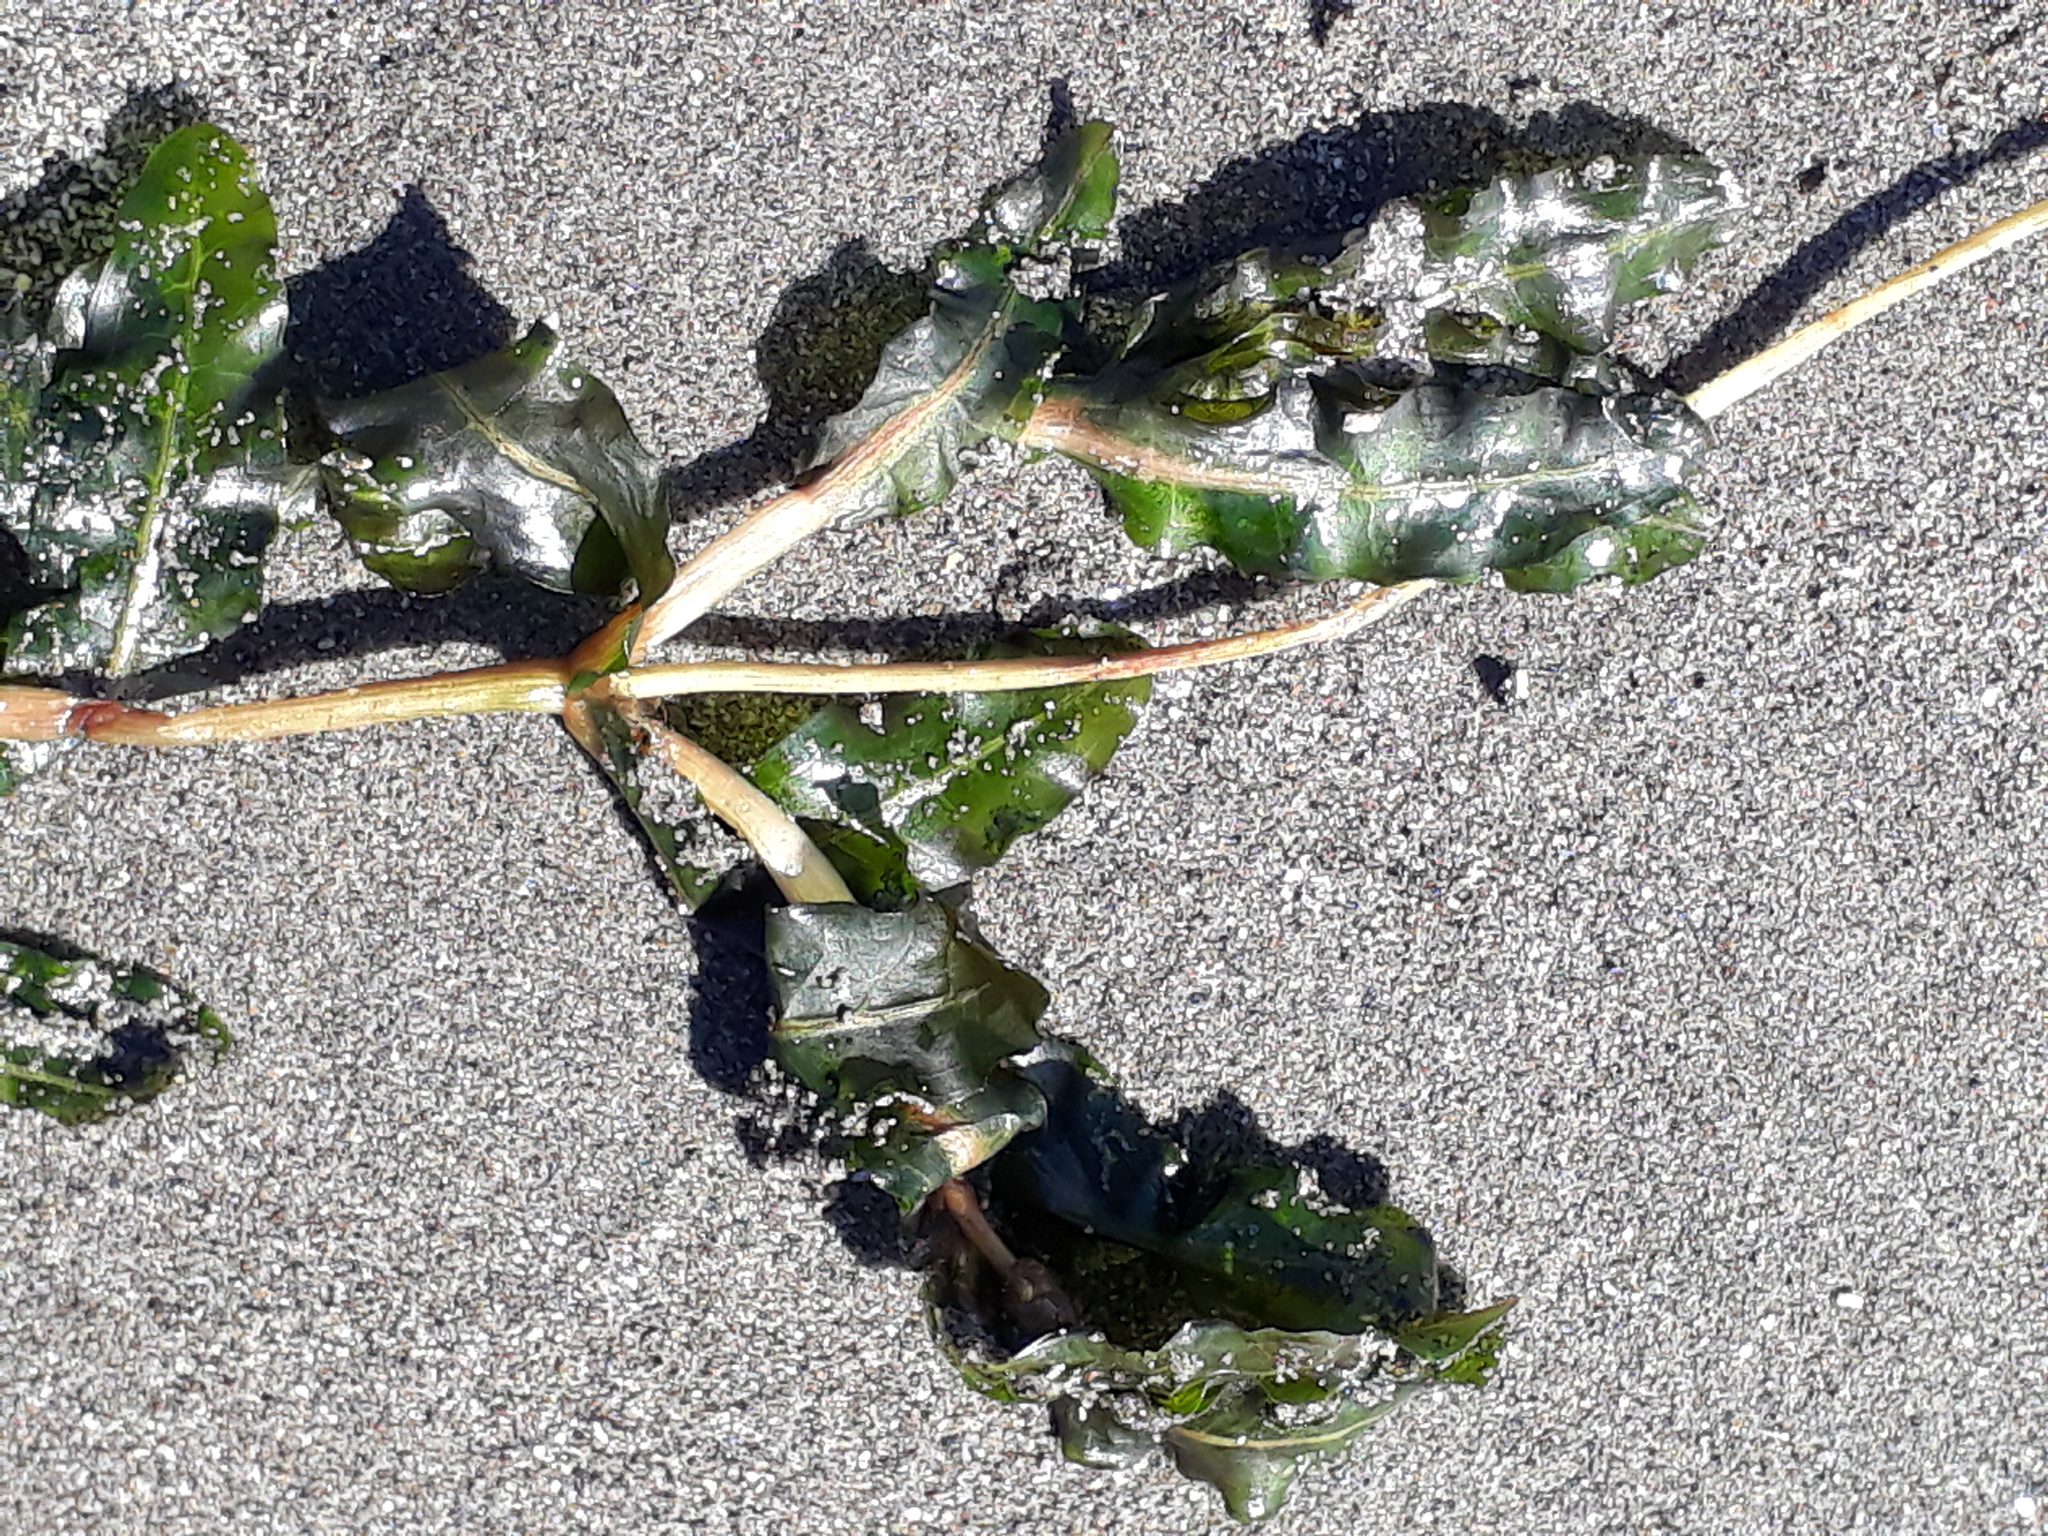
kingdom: Plantae
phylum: Tracheophyta
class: Liliopsida
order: Alismatales
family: Potamogetonaceae
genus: Potamogeton
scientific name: Potamogeton crispus
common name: Curled pondweed
